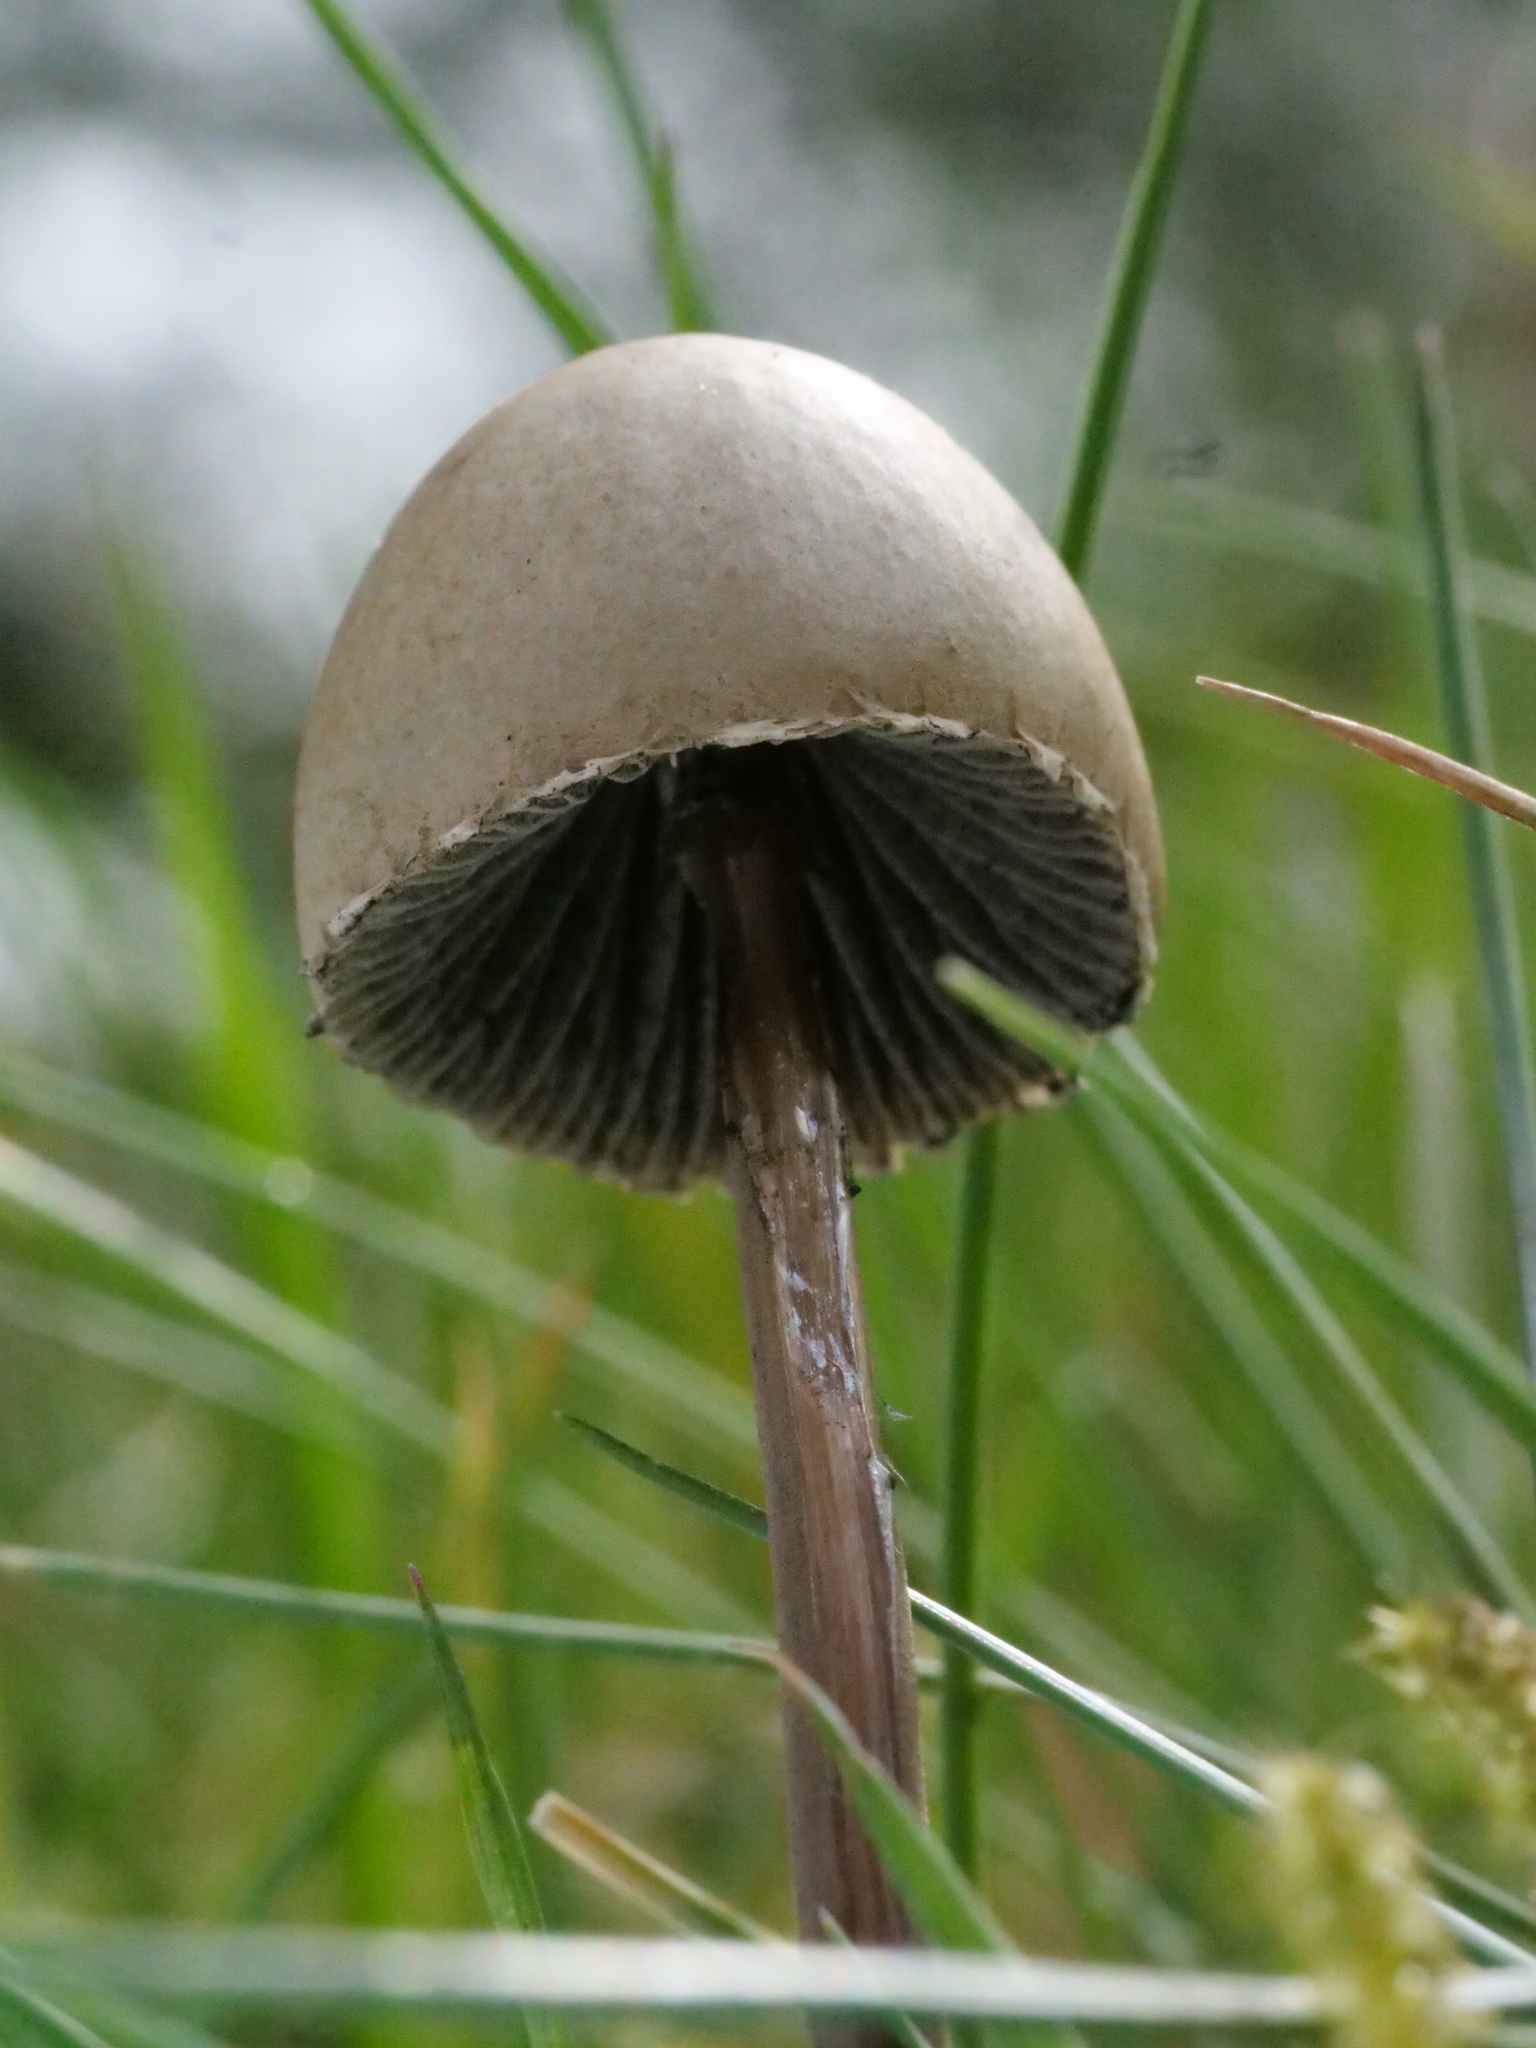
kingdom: Fungi
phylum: Basidiomycota
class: Agaricomycetes
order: Agaricales
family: Bolbitiaceae
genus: Panaeolus
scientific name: Panaeolus papilionaceus
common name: Petticoat mottlegill
